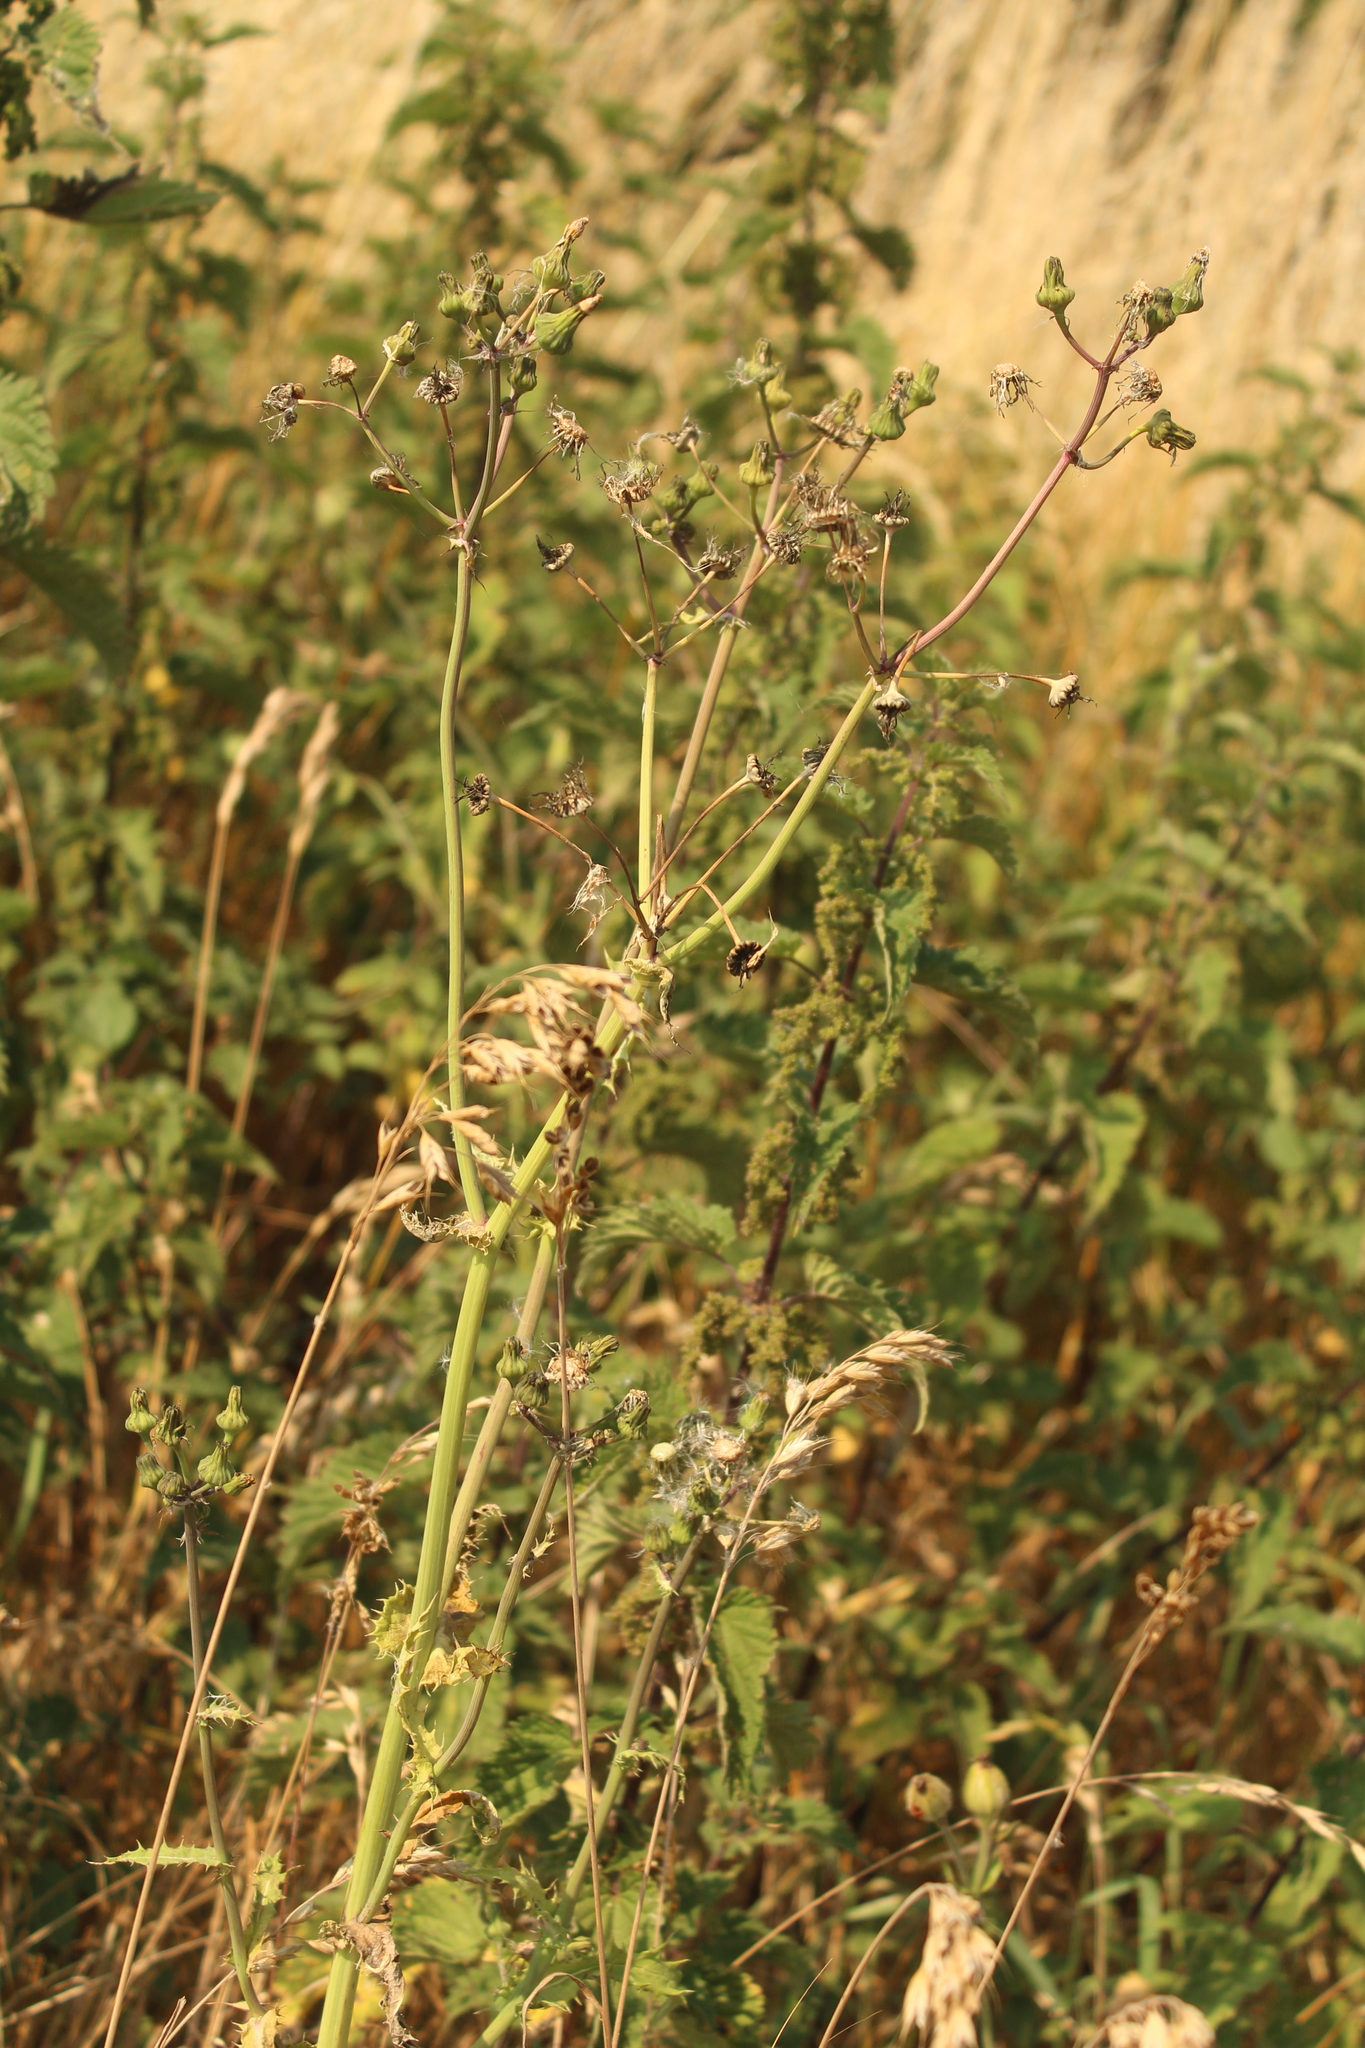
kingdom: Plantae
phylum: Tracheophyta
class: Magnoliopsida
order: Asterales
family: Asteraceae
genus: Sonchus
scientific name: Sonchus asper
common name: Prickly sow-thistle
